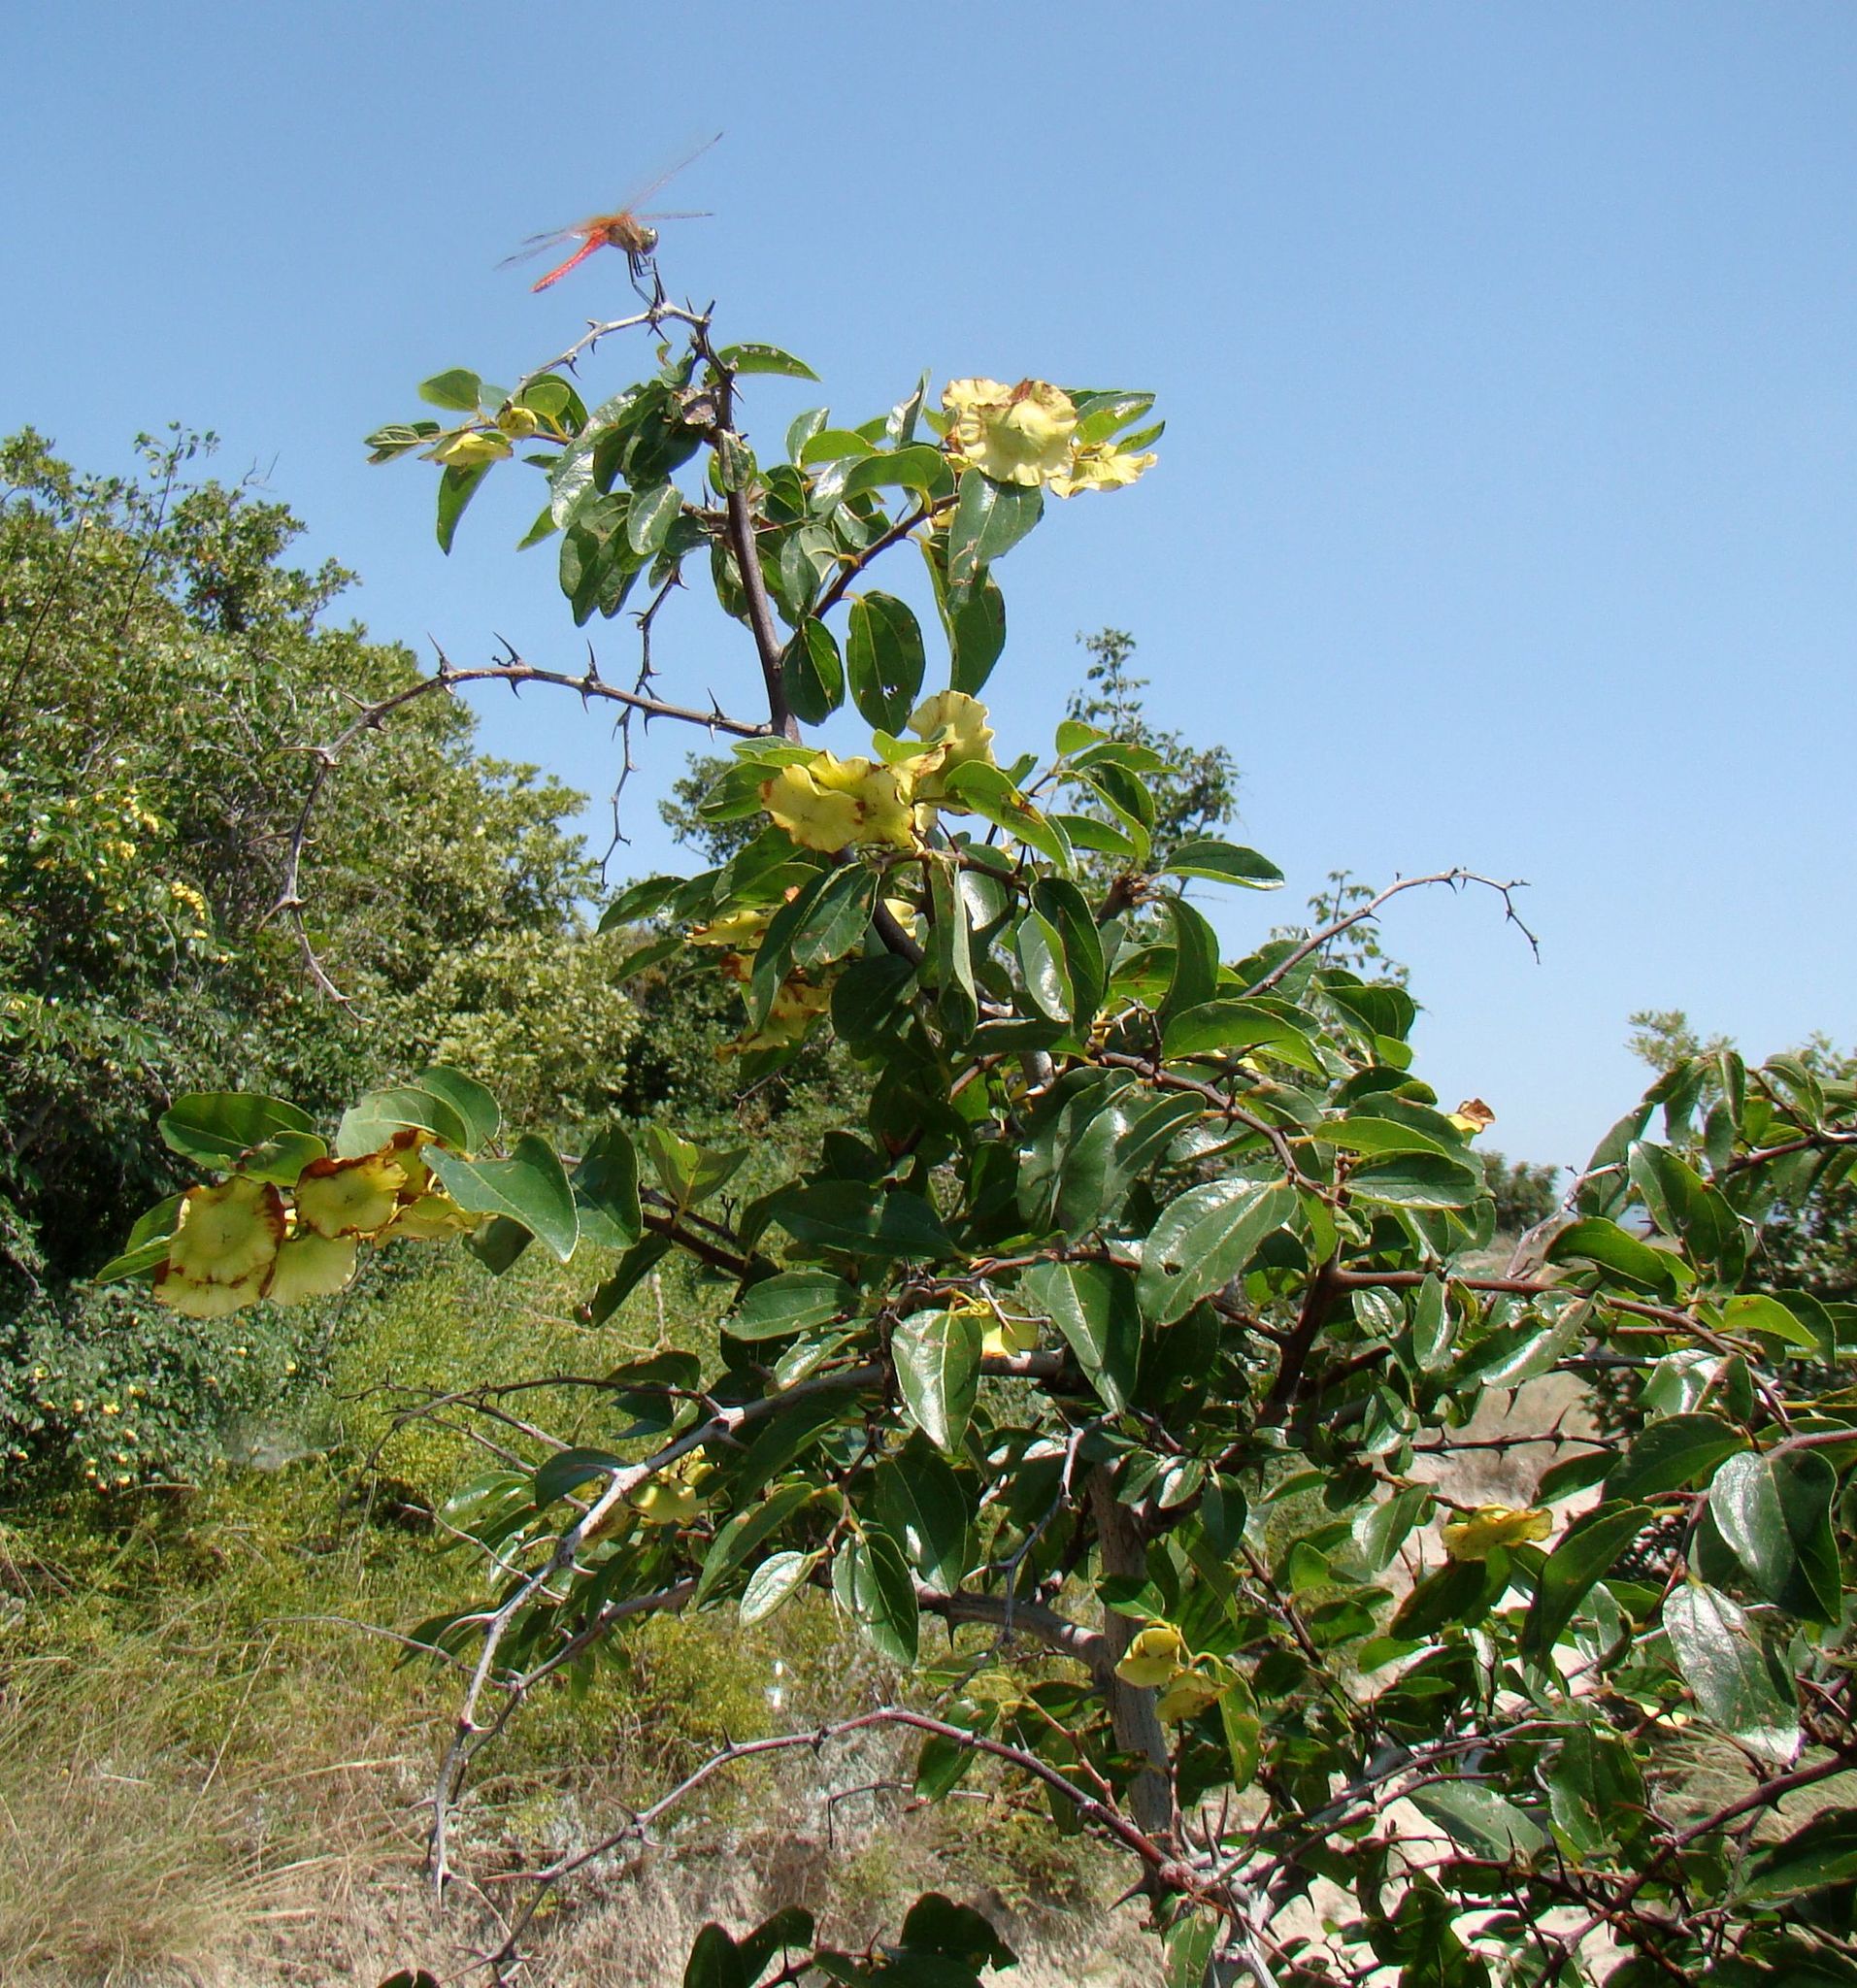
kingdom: Plantae
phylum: Tracheophyta
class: Magnoliopsida
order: Rosales
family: Rhamnaceae
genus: Paliurus
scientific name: Paliurus spina-christi
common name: Jeruselem thorn
